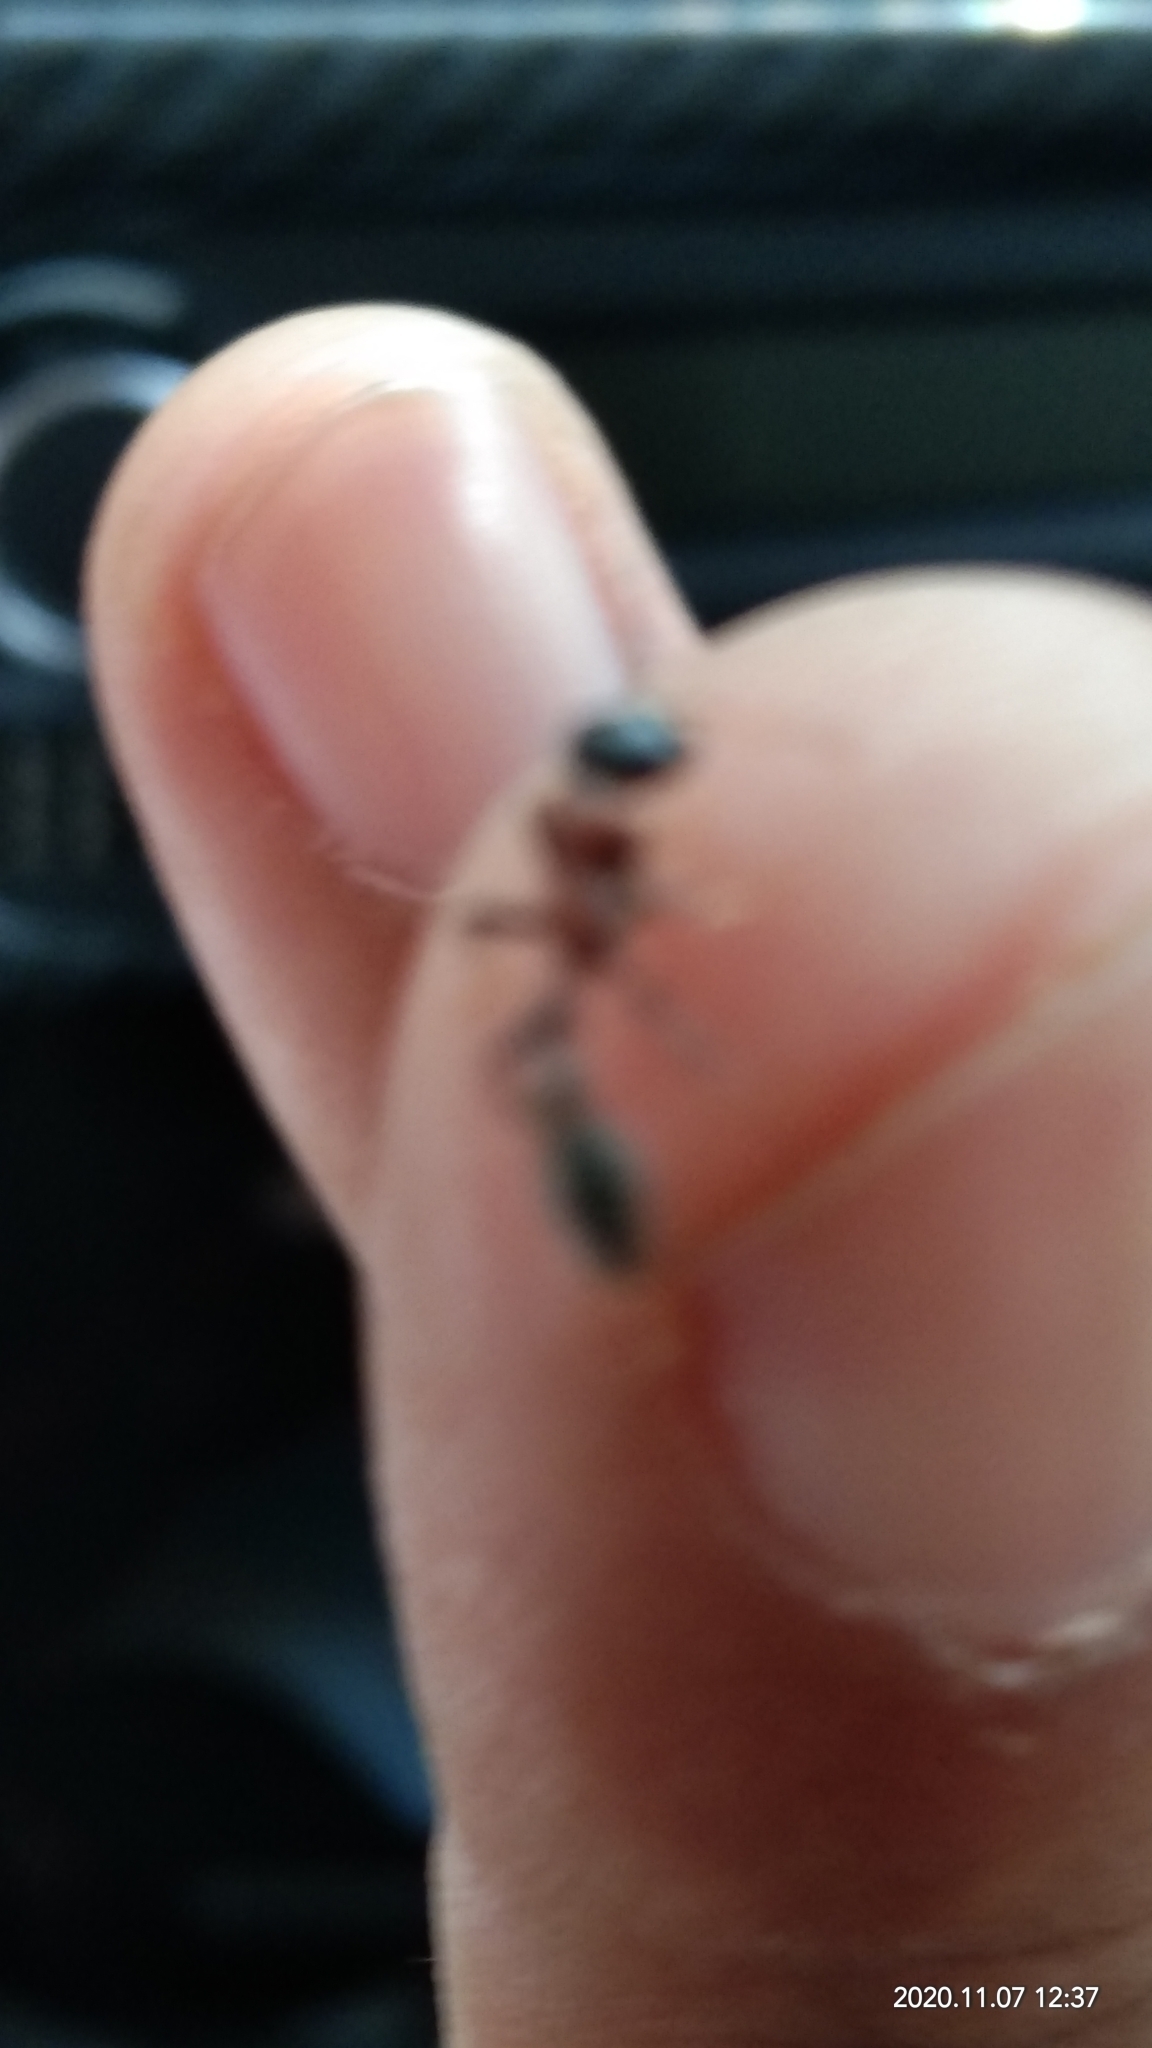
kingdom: Animalia
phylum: Arthropoda
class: Insecta
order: Hymenoptera
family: Formicidae
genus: Tetraponera
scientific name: Tetraponera rufonigra
